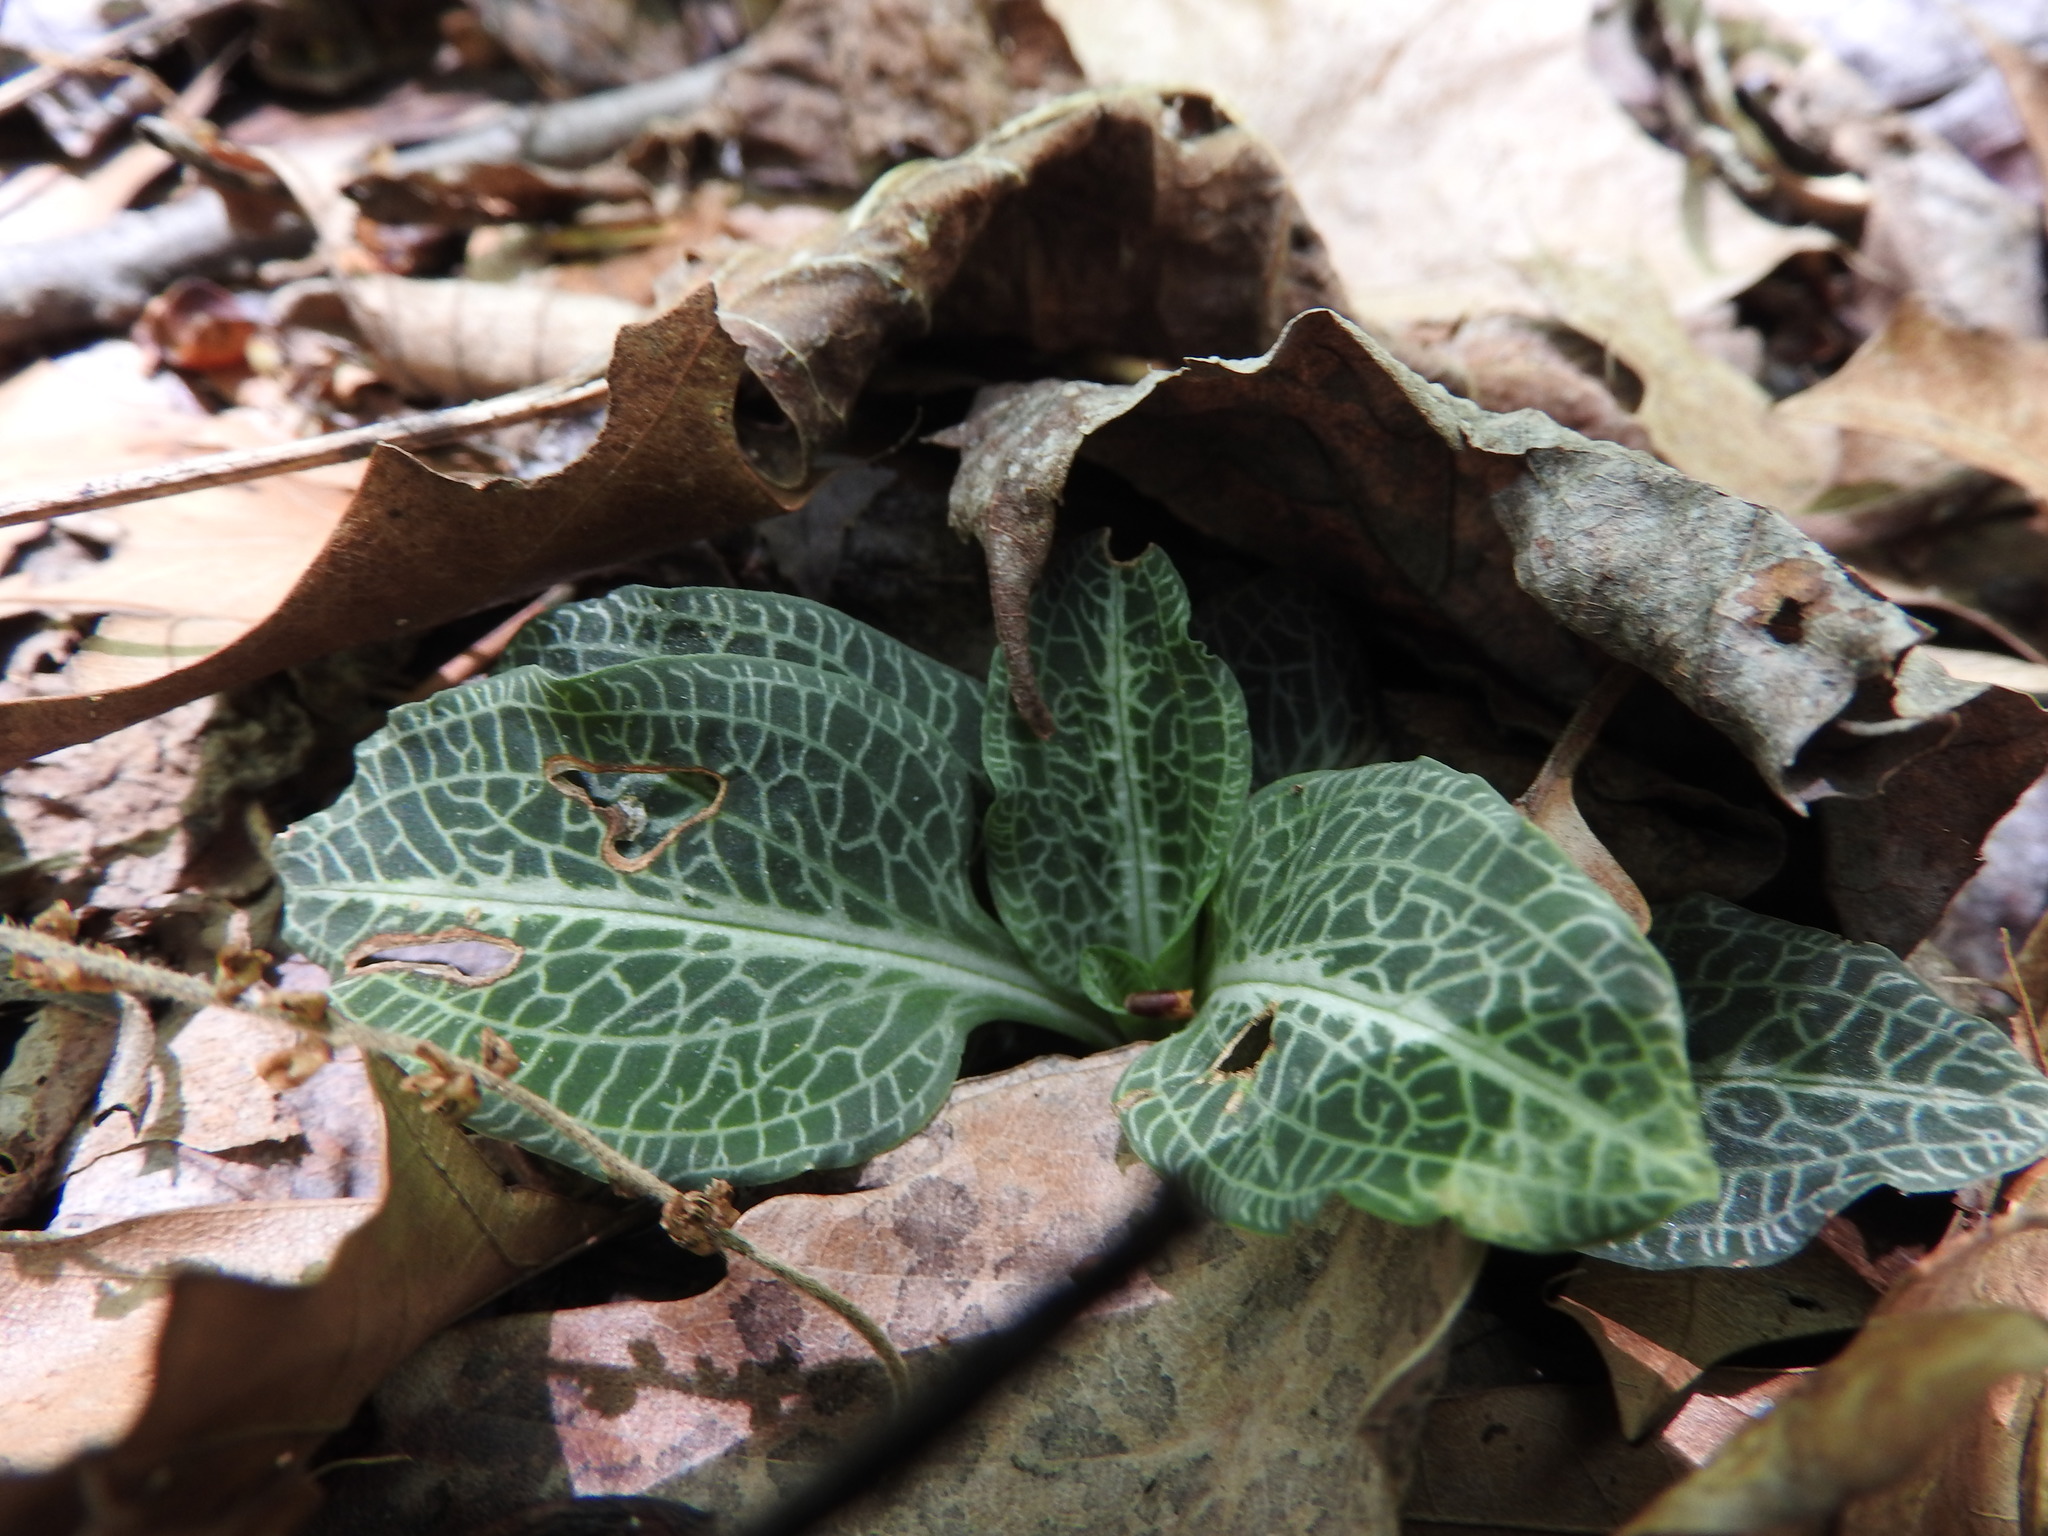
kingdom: Plantae
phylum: Tracheophyta
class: Liliopsida
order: Asparagales
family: Orchidaceae
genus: Goodyera
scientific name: Goodyera pubescens
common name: Downy rattlesnake-plantain
